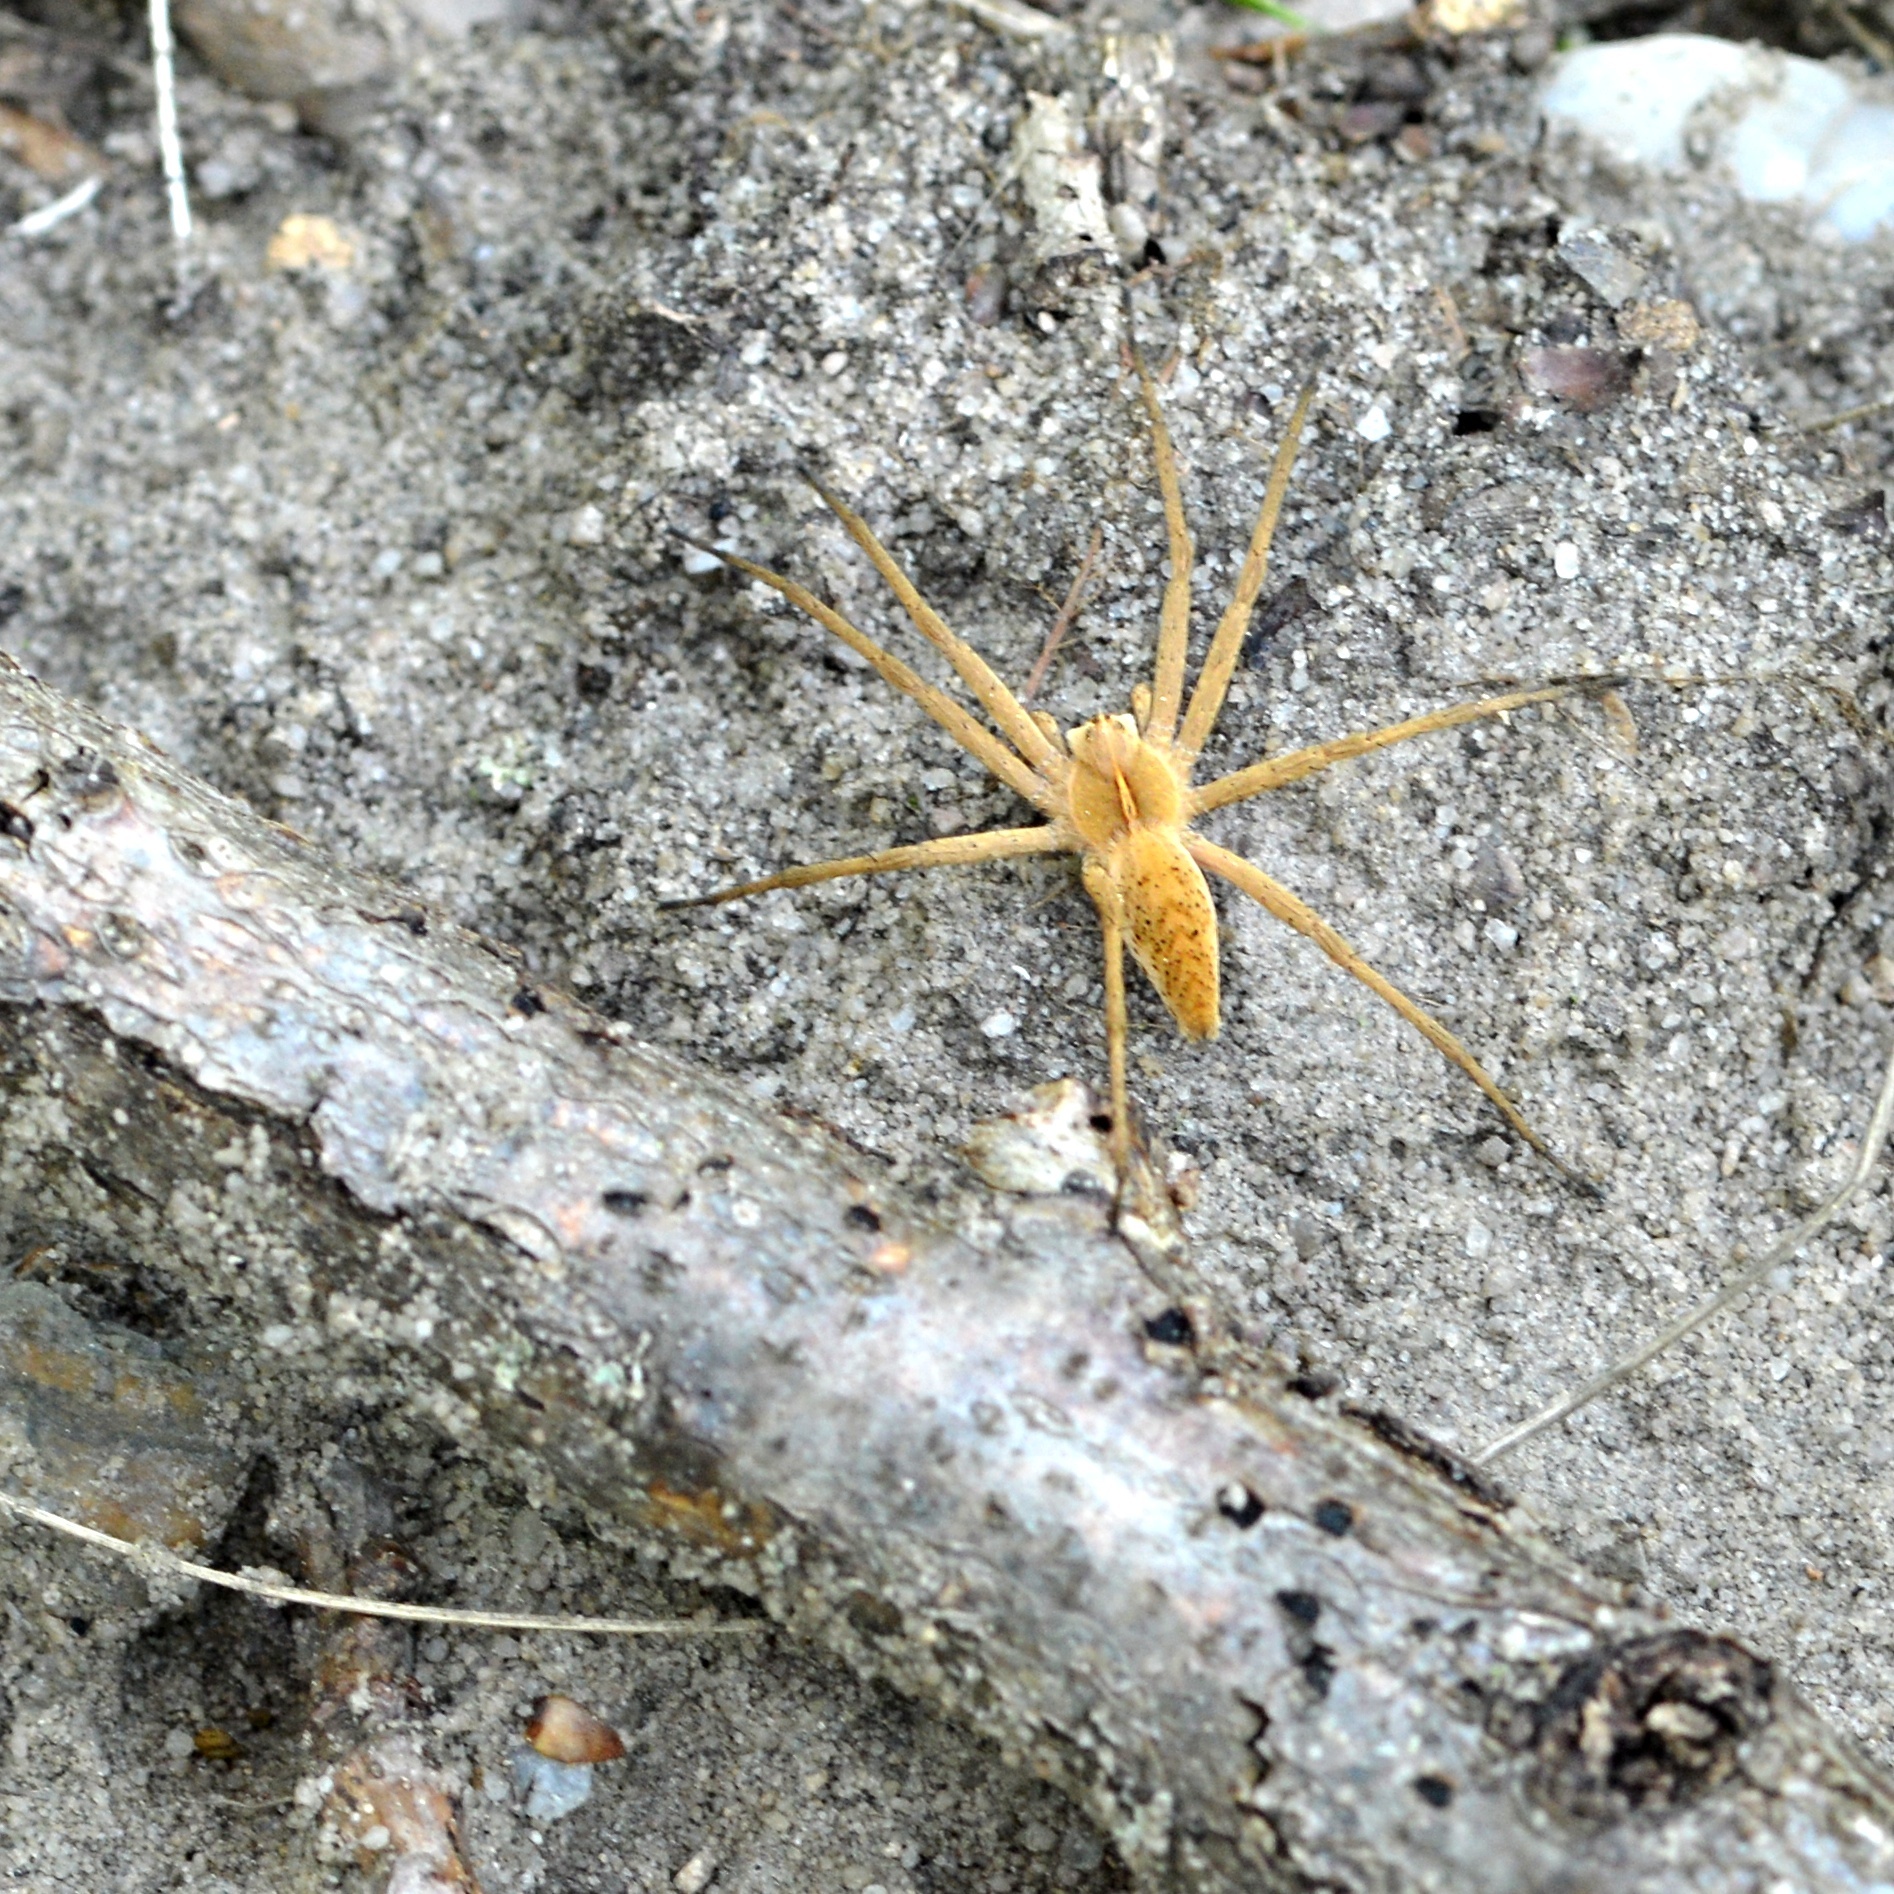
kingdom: Animalia
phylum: Arthropoda
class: Arachnida
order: Araneae
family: Pisauridae
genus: Pisaura
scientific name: Pisaura mirabilis
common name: Tent spider
